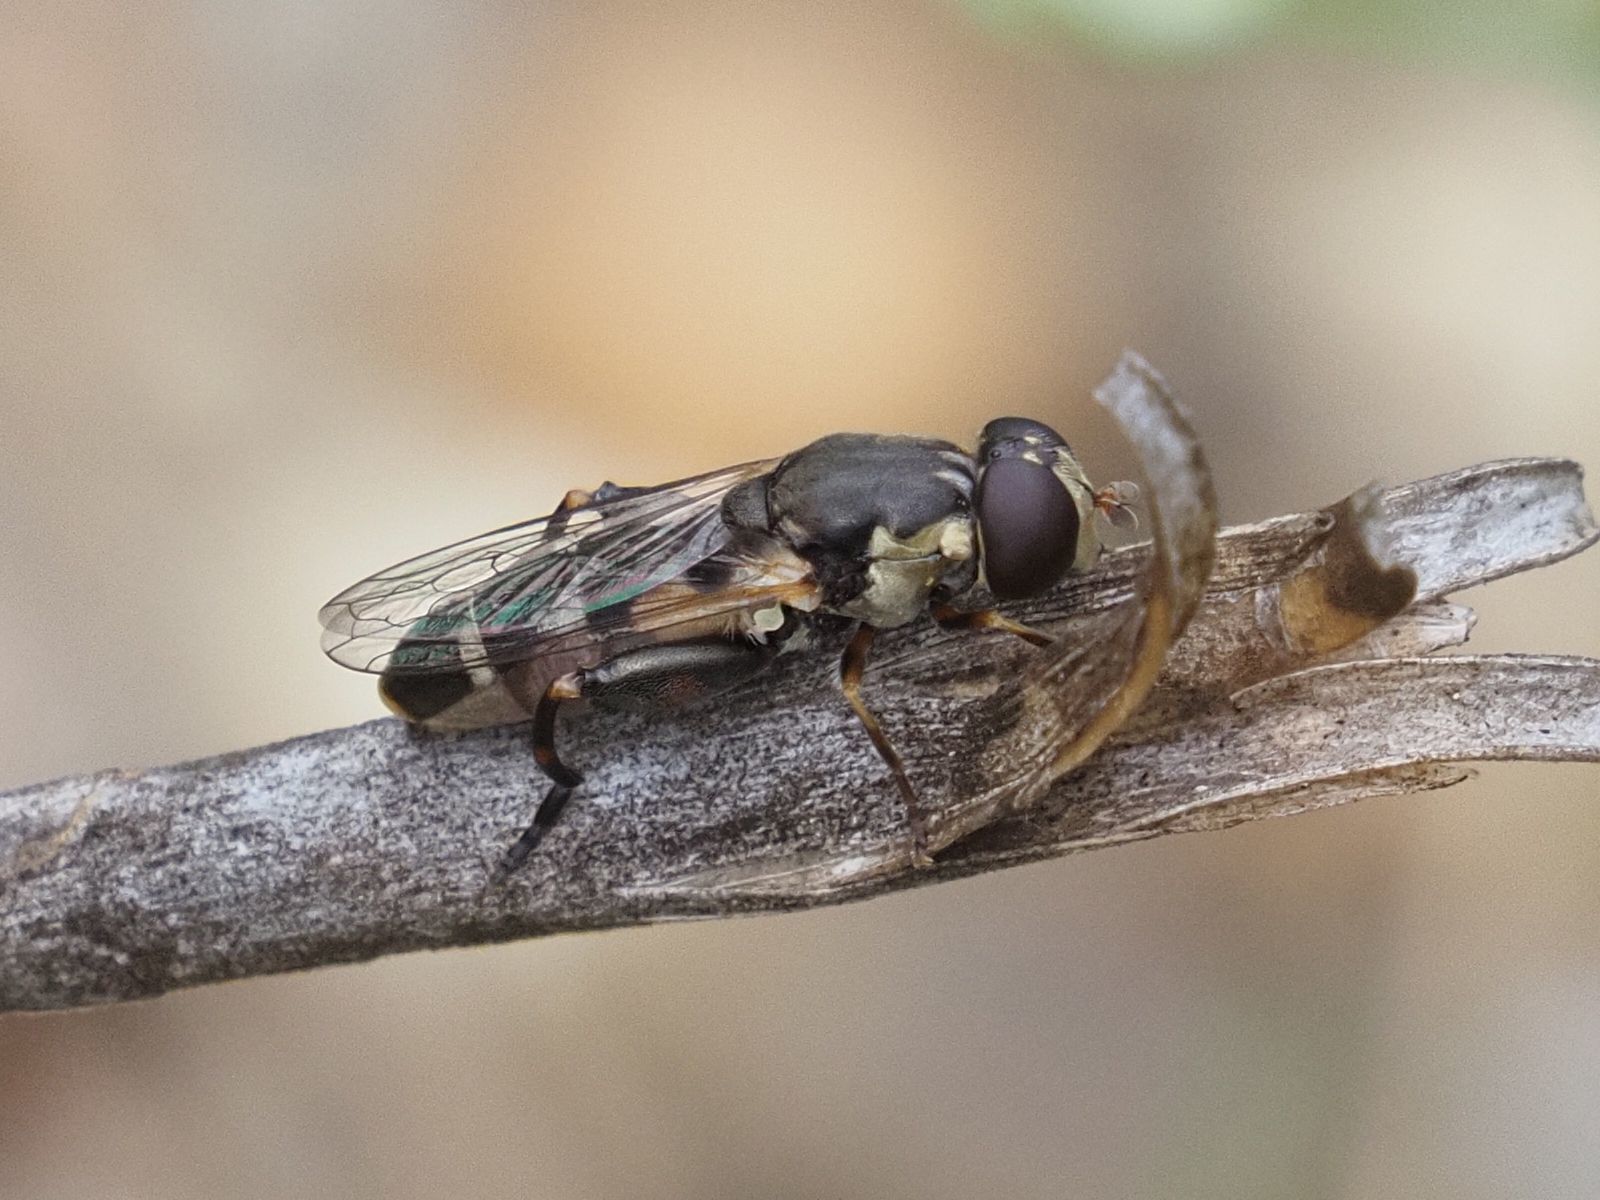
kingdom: Animalia
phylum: Arthropoda
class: Insecta
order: Diptera
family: Syrphidae
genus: Syritta
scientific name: Syritta pipiens
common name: Hover fly
